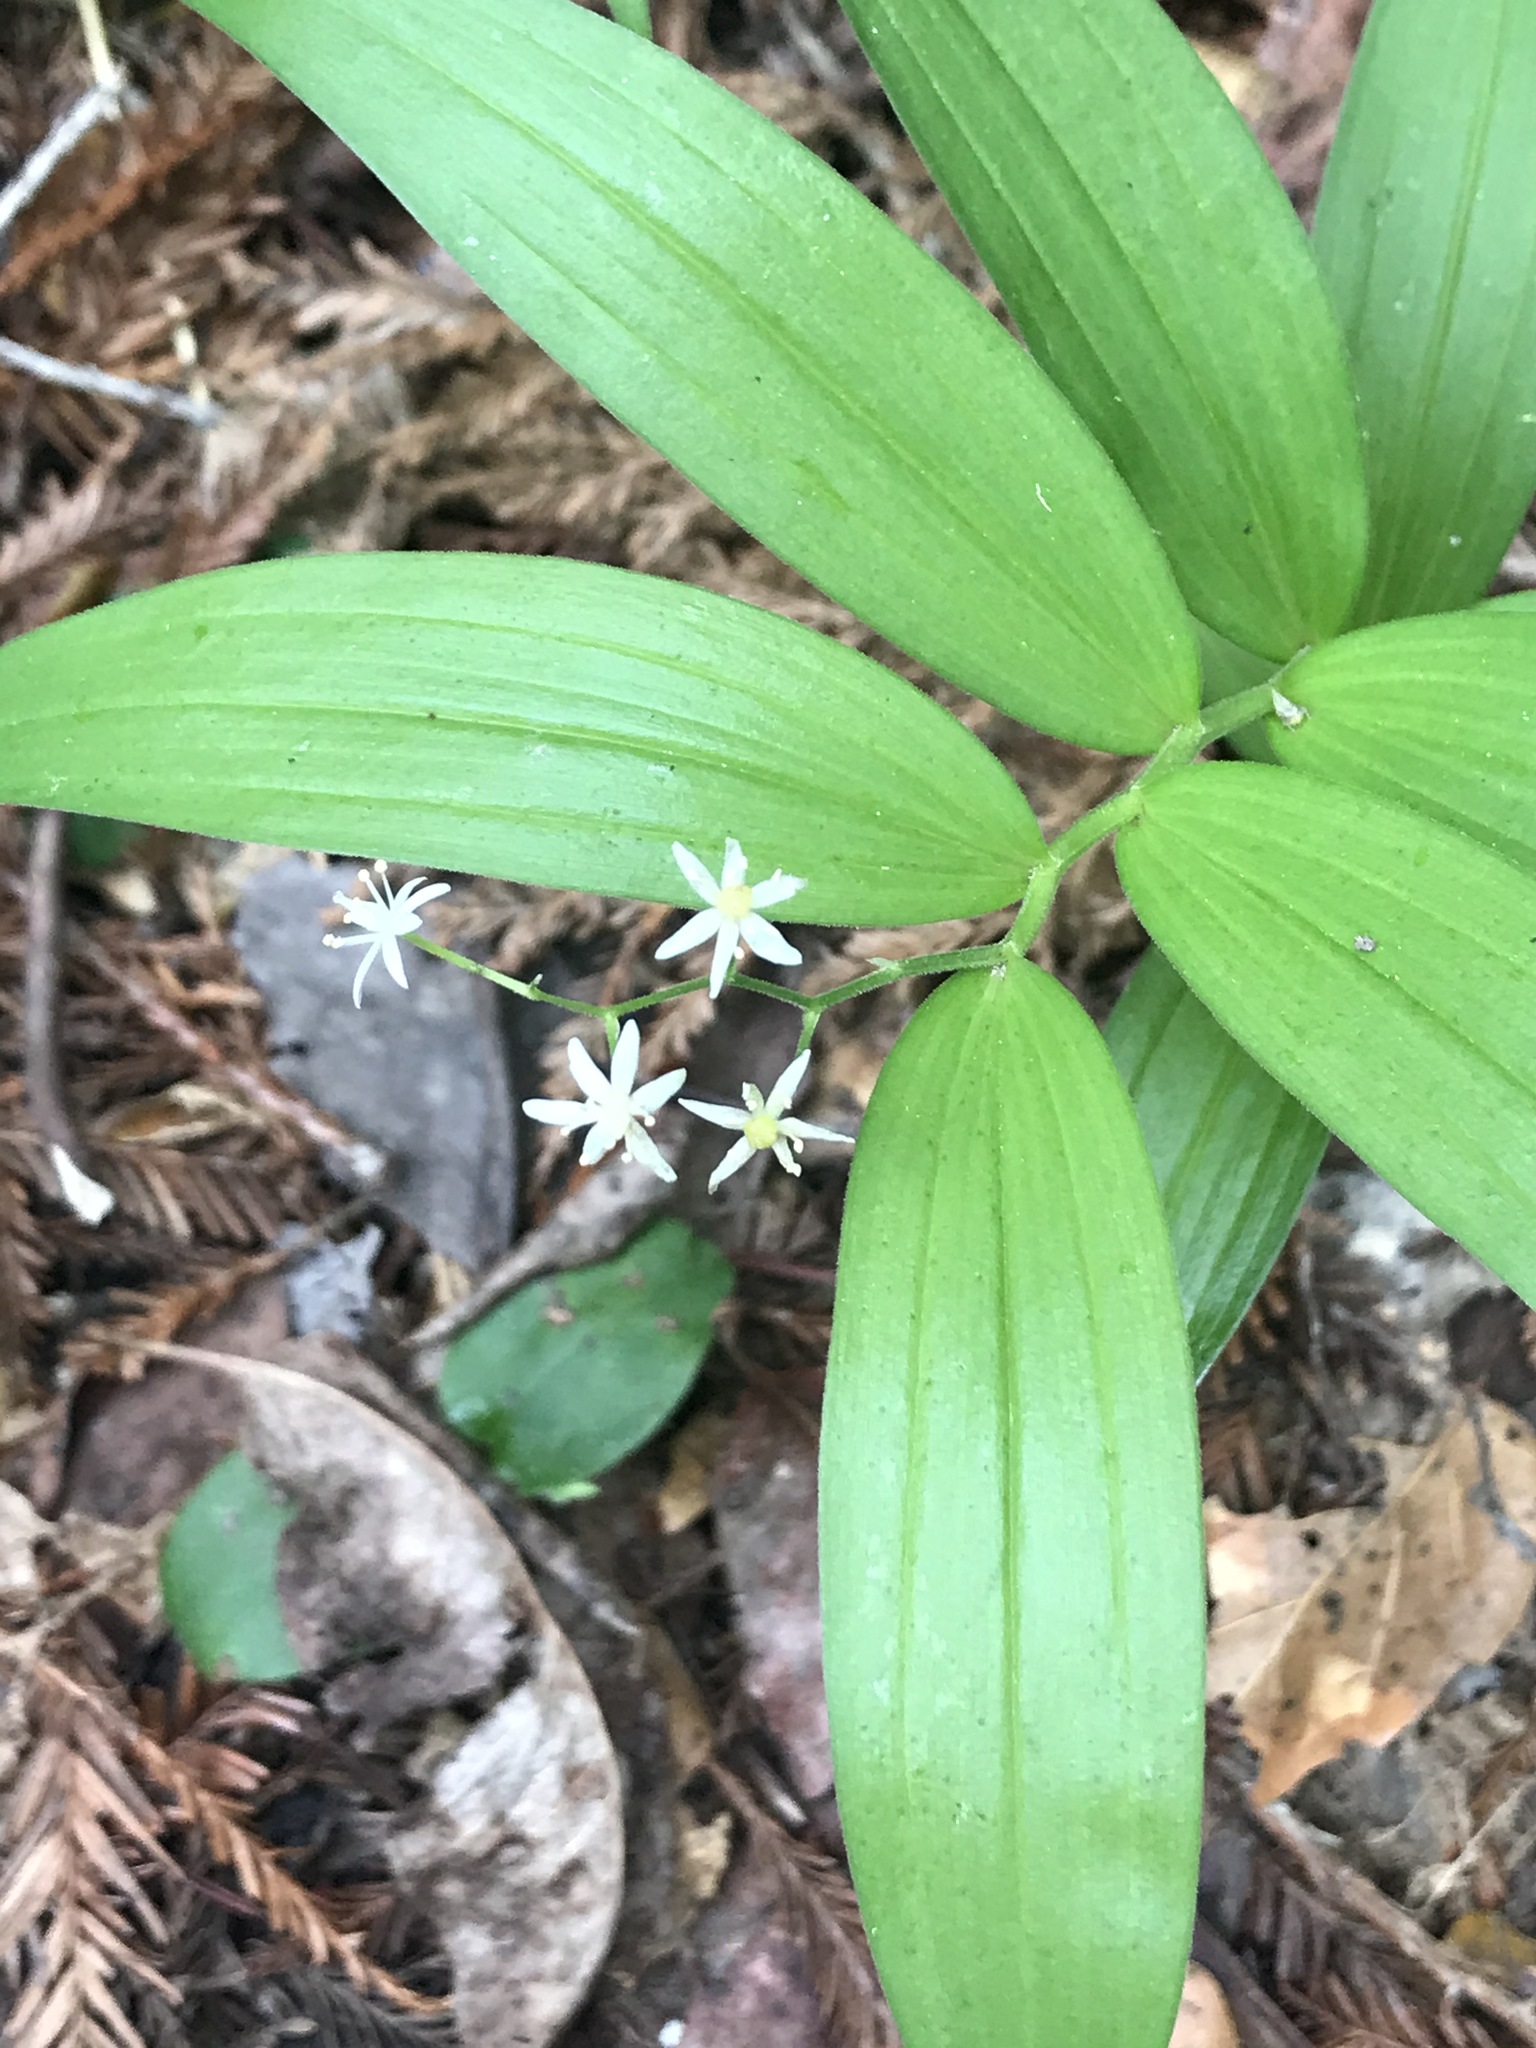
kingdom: Plantae
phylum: Tracheophyta
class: Liliopsida
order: Asparagales
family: Asparagaceae
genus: Maianthemum
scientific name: Maianthemum stellatum
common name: Little false solomon's seal
